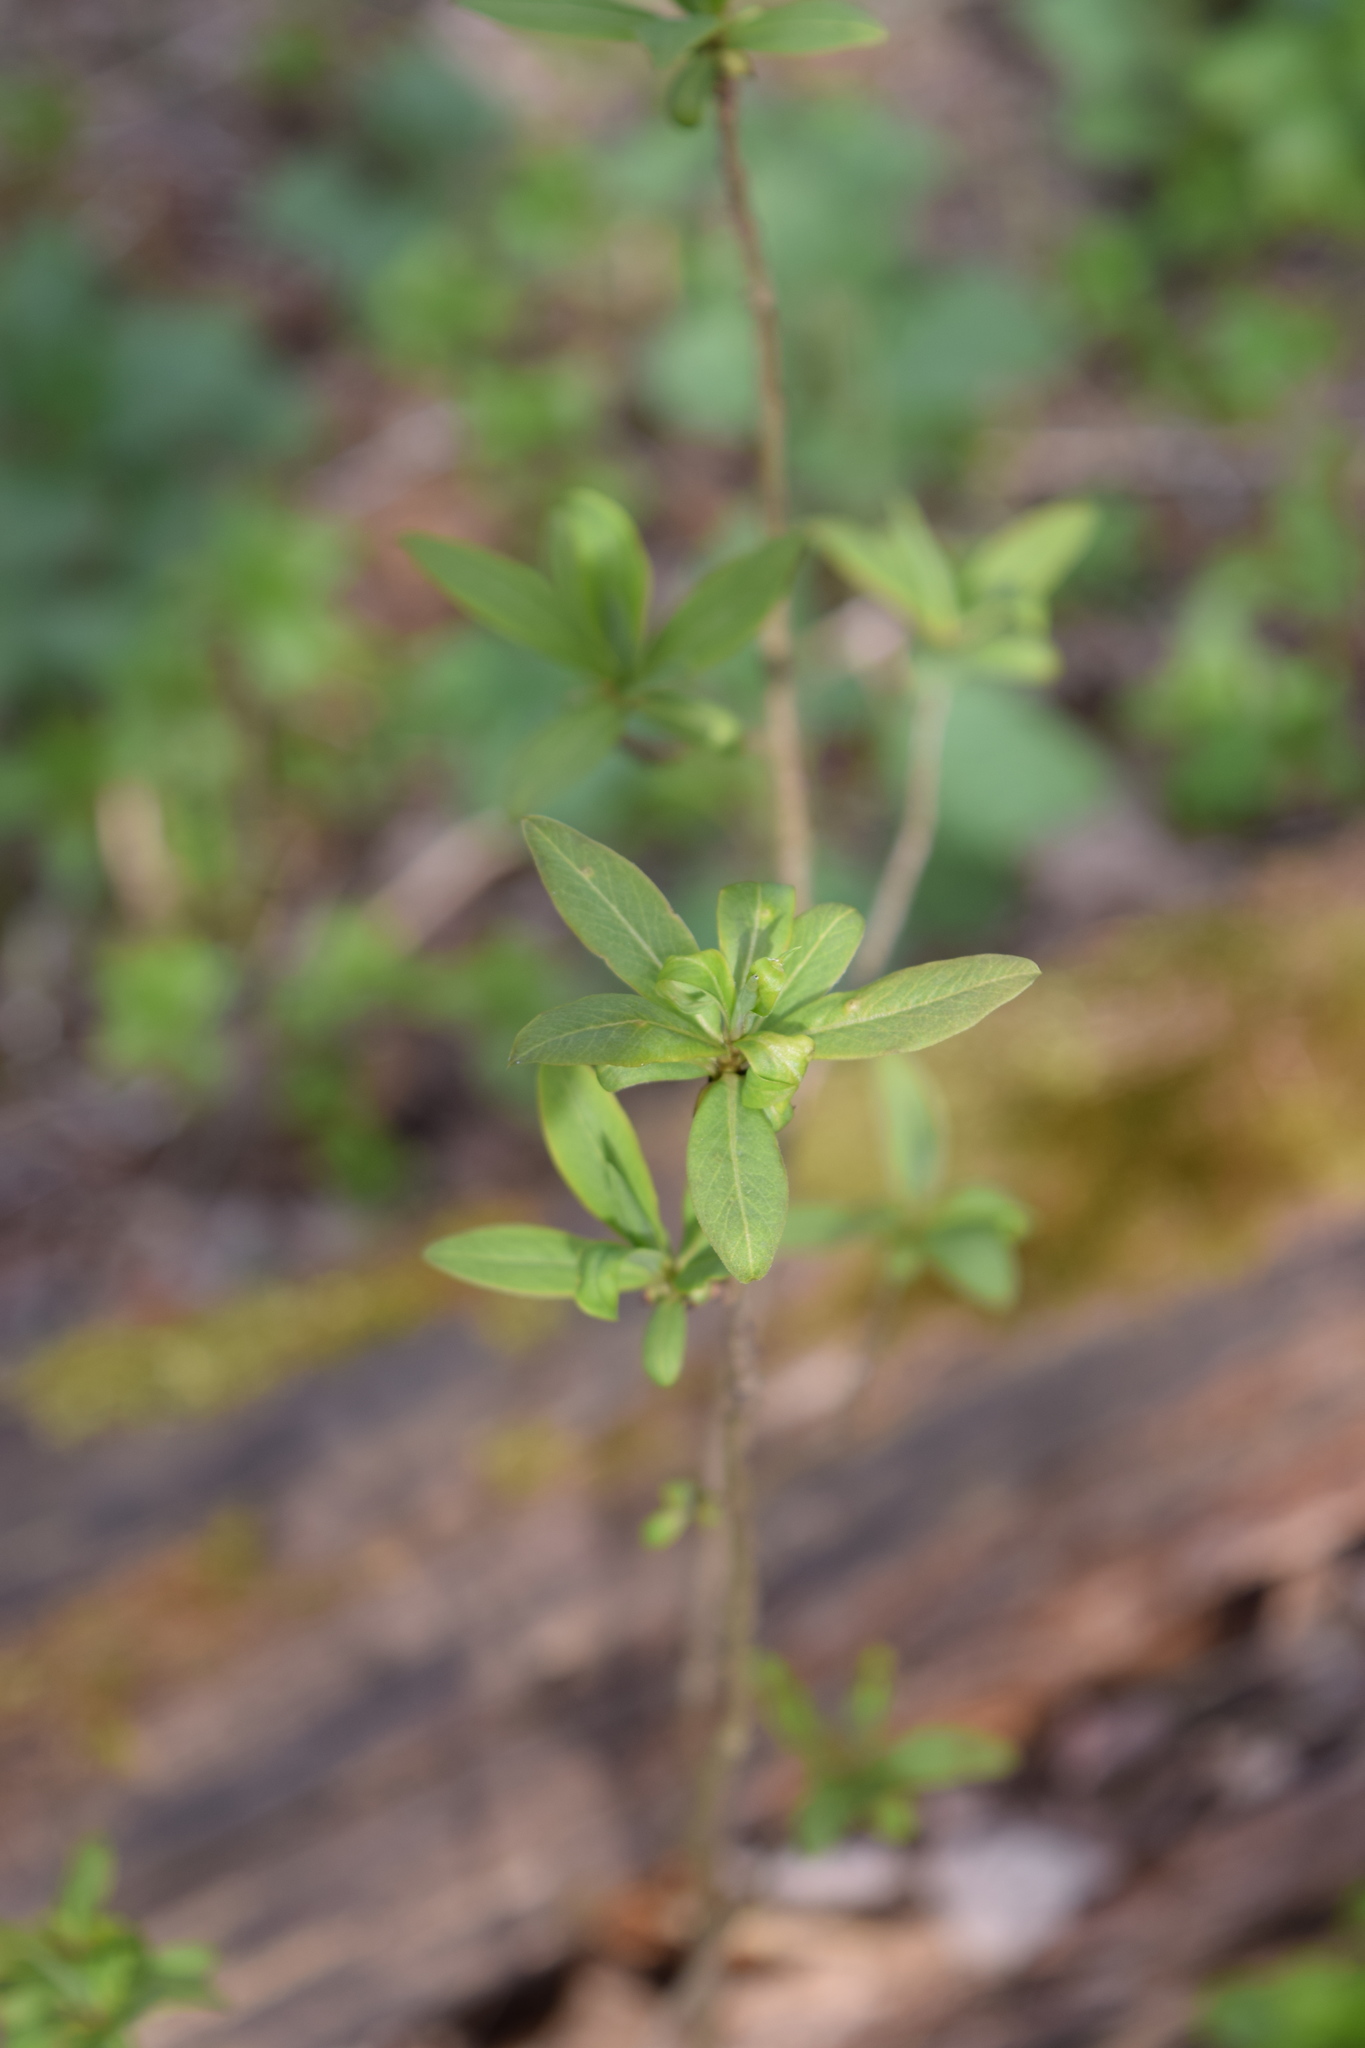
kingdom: Plantae
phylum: Tracheophyta
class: Magnoliopsida
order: Malvales
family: Thymelaeaceae
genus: Daphne
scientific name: Daphne mezereum
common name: Mezereon
